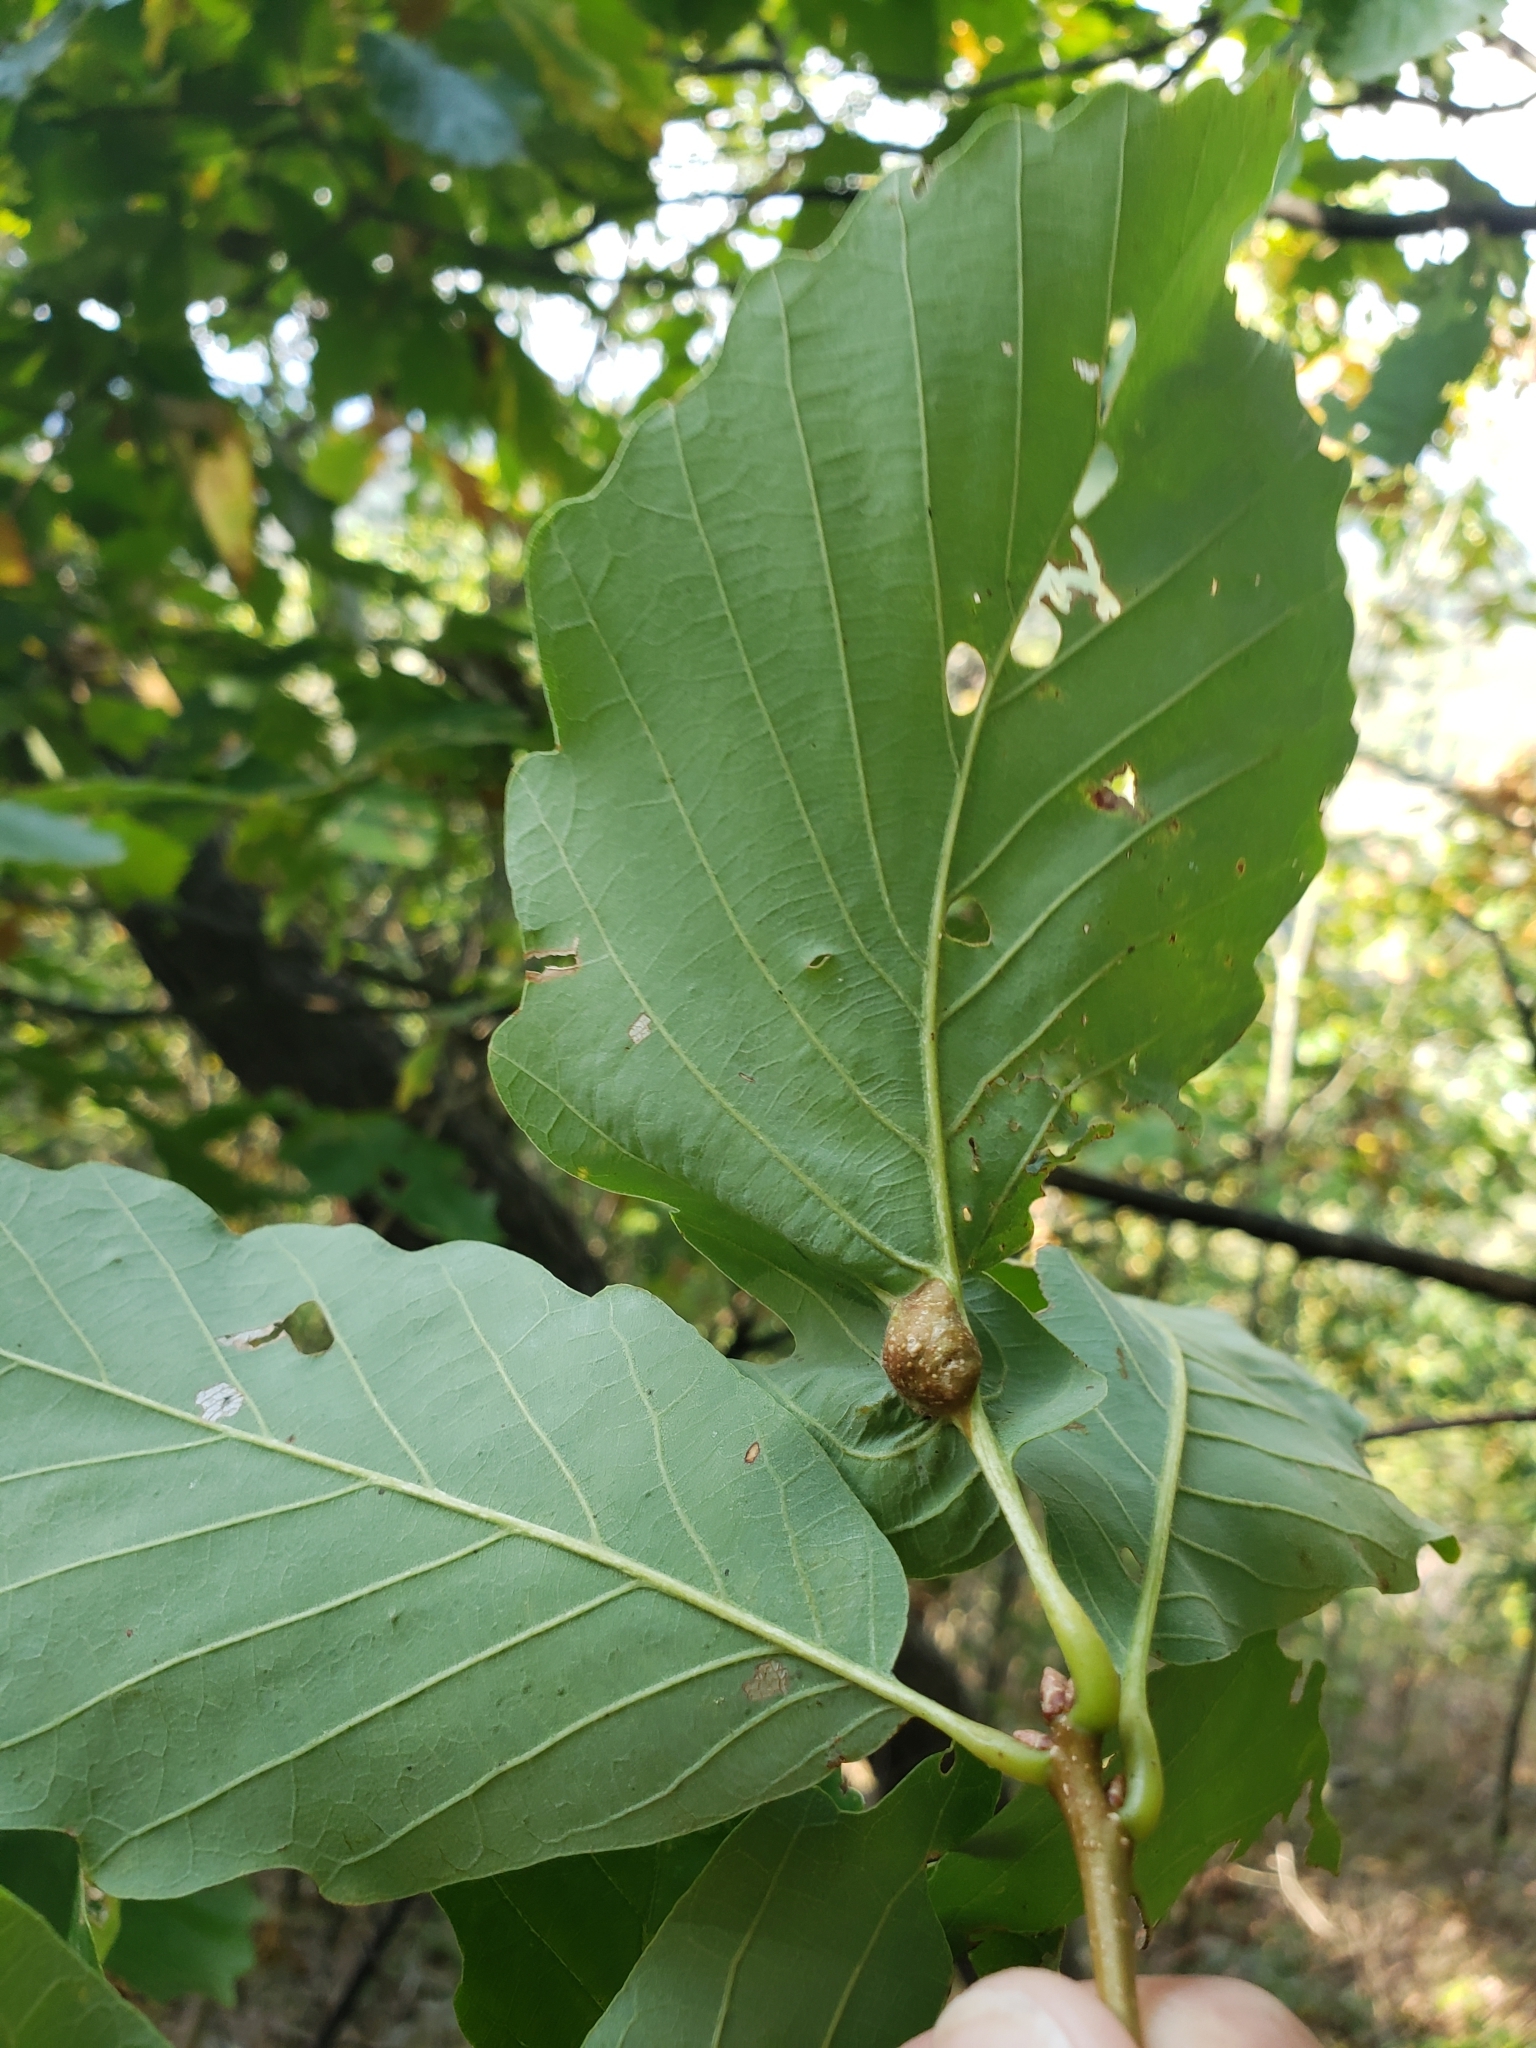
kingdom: Animalia
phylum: Arthropoda
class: Insecta
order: Hymenoptera
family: Cynipidae
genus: Andricus
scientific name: Andricus
